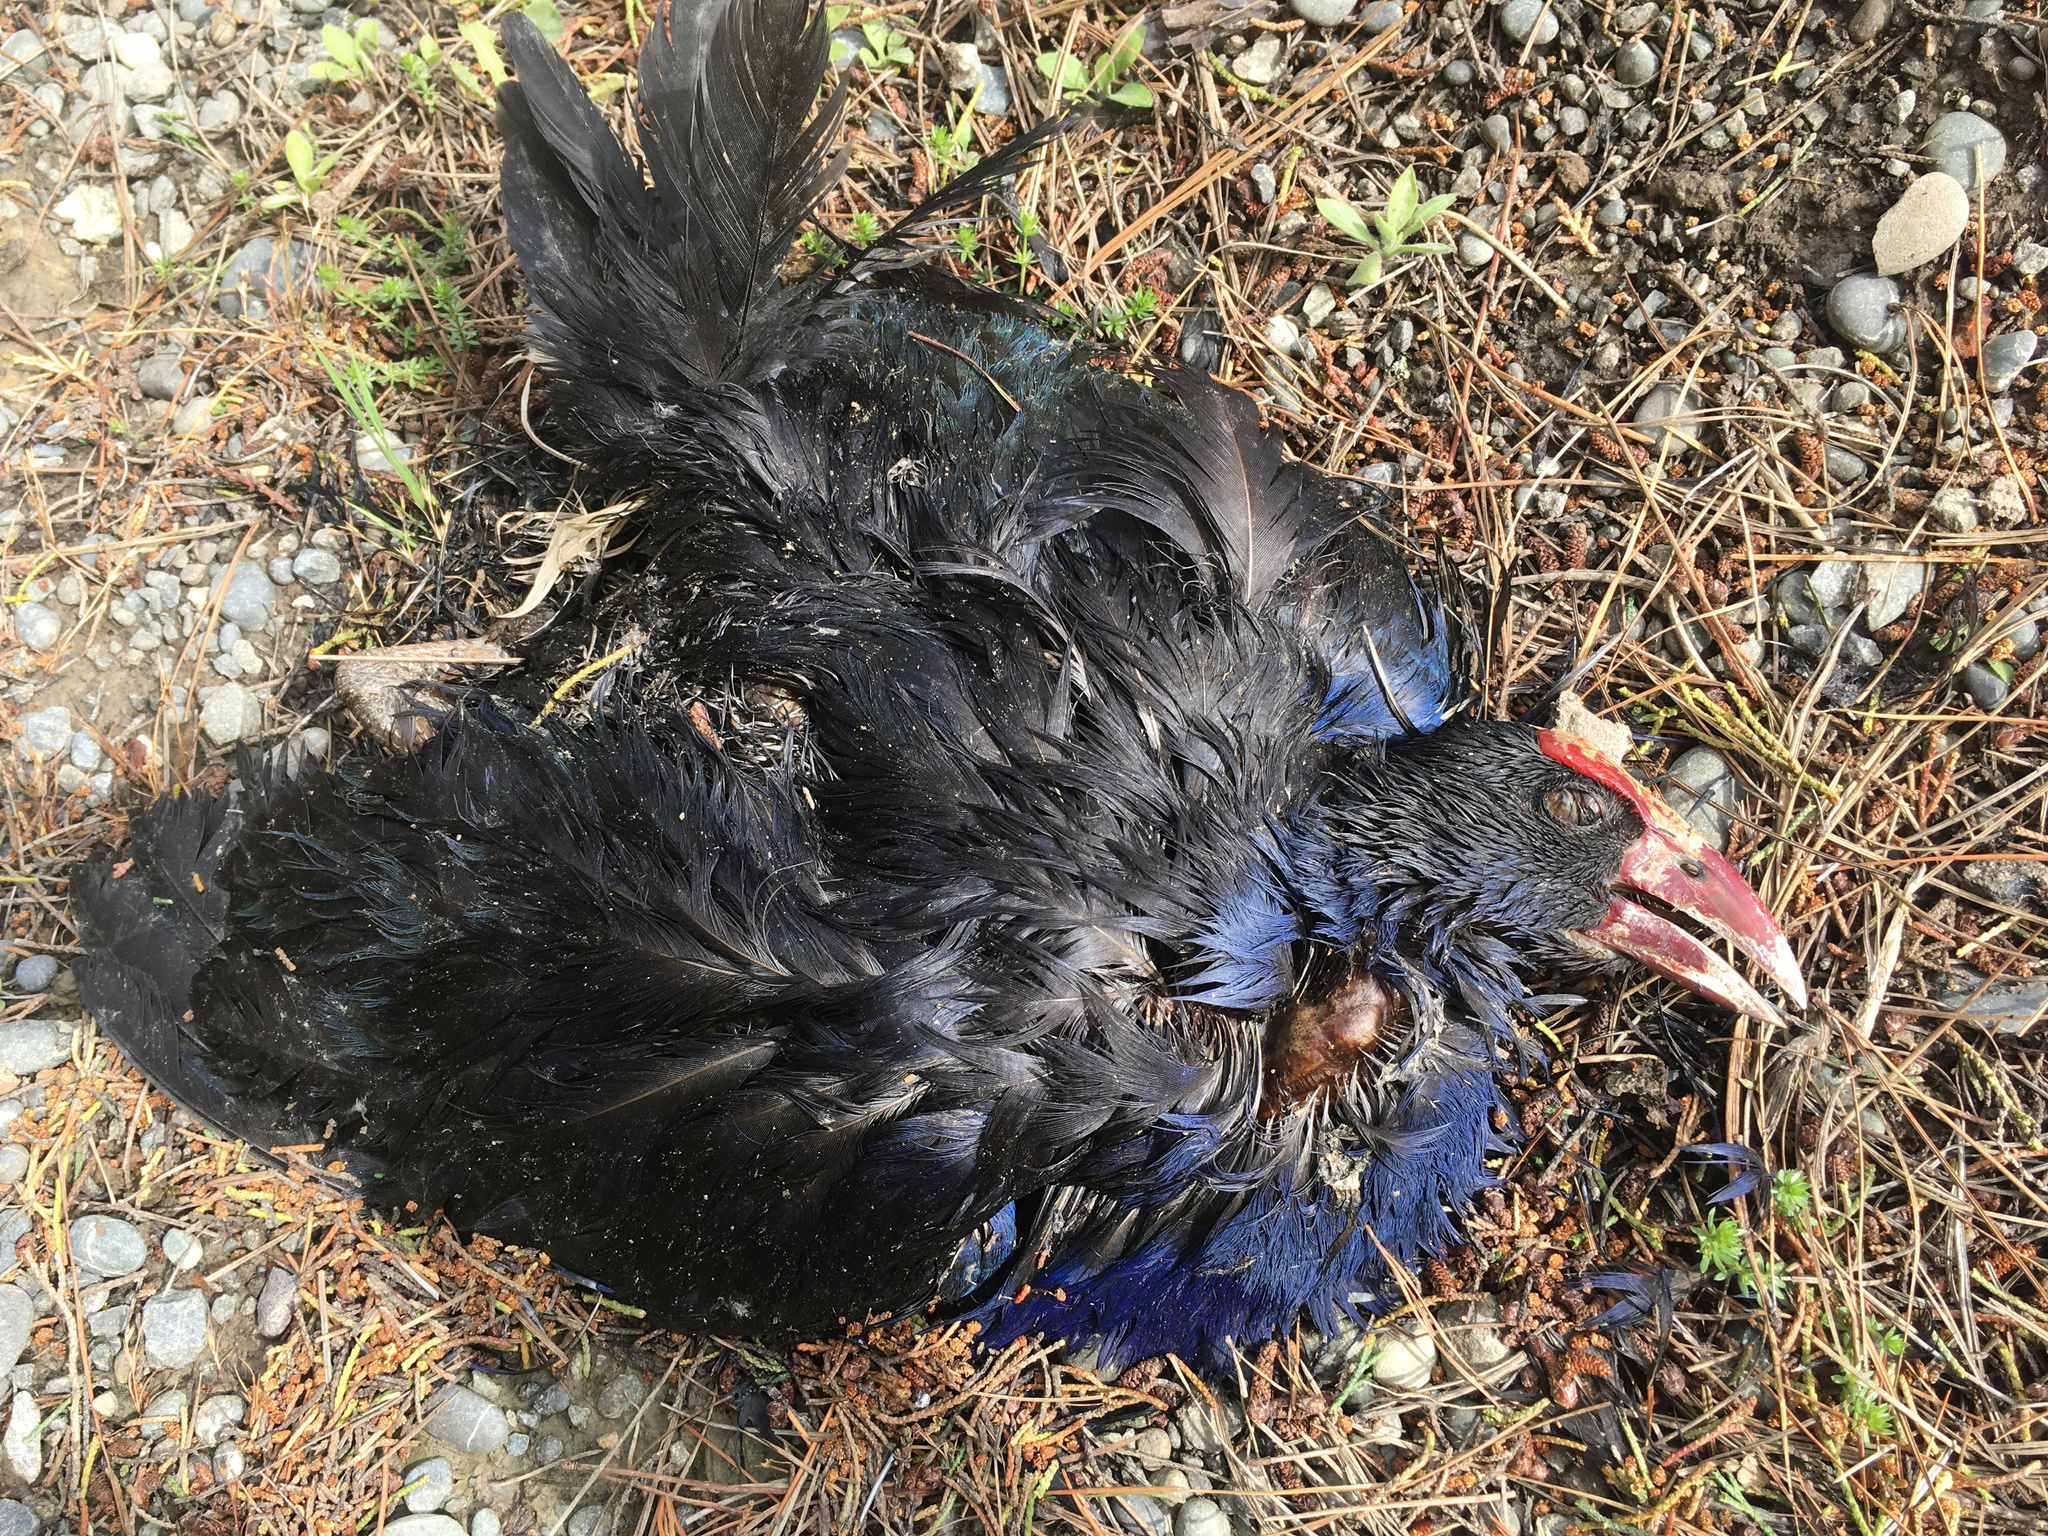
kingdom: Animalia
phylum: Chordata
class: Aves
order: Gruiformes
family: Rallidae
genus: Porphyrio
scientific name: Porphyrio melanotus
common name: Australasian swamphen
